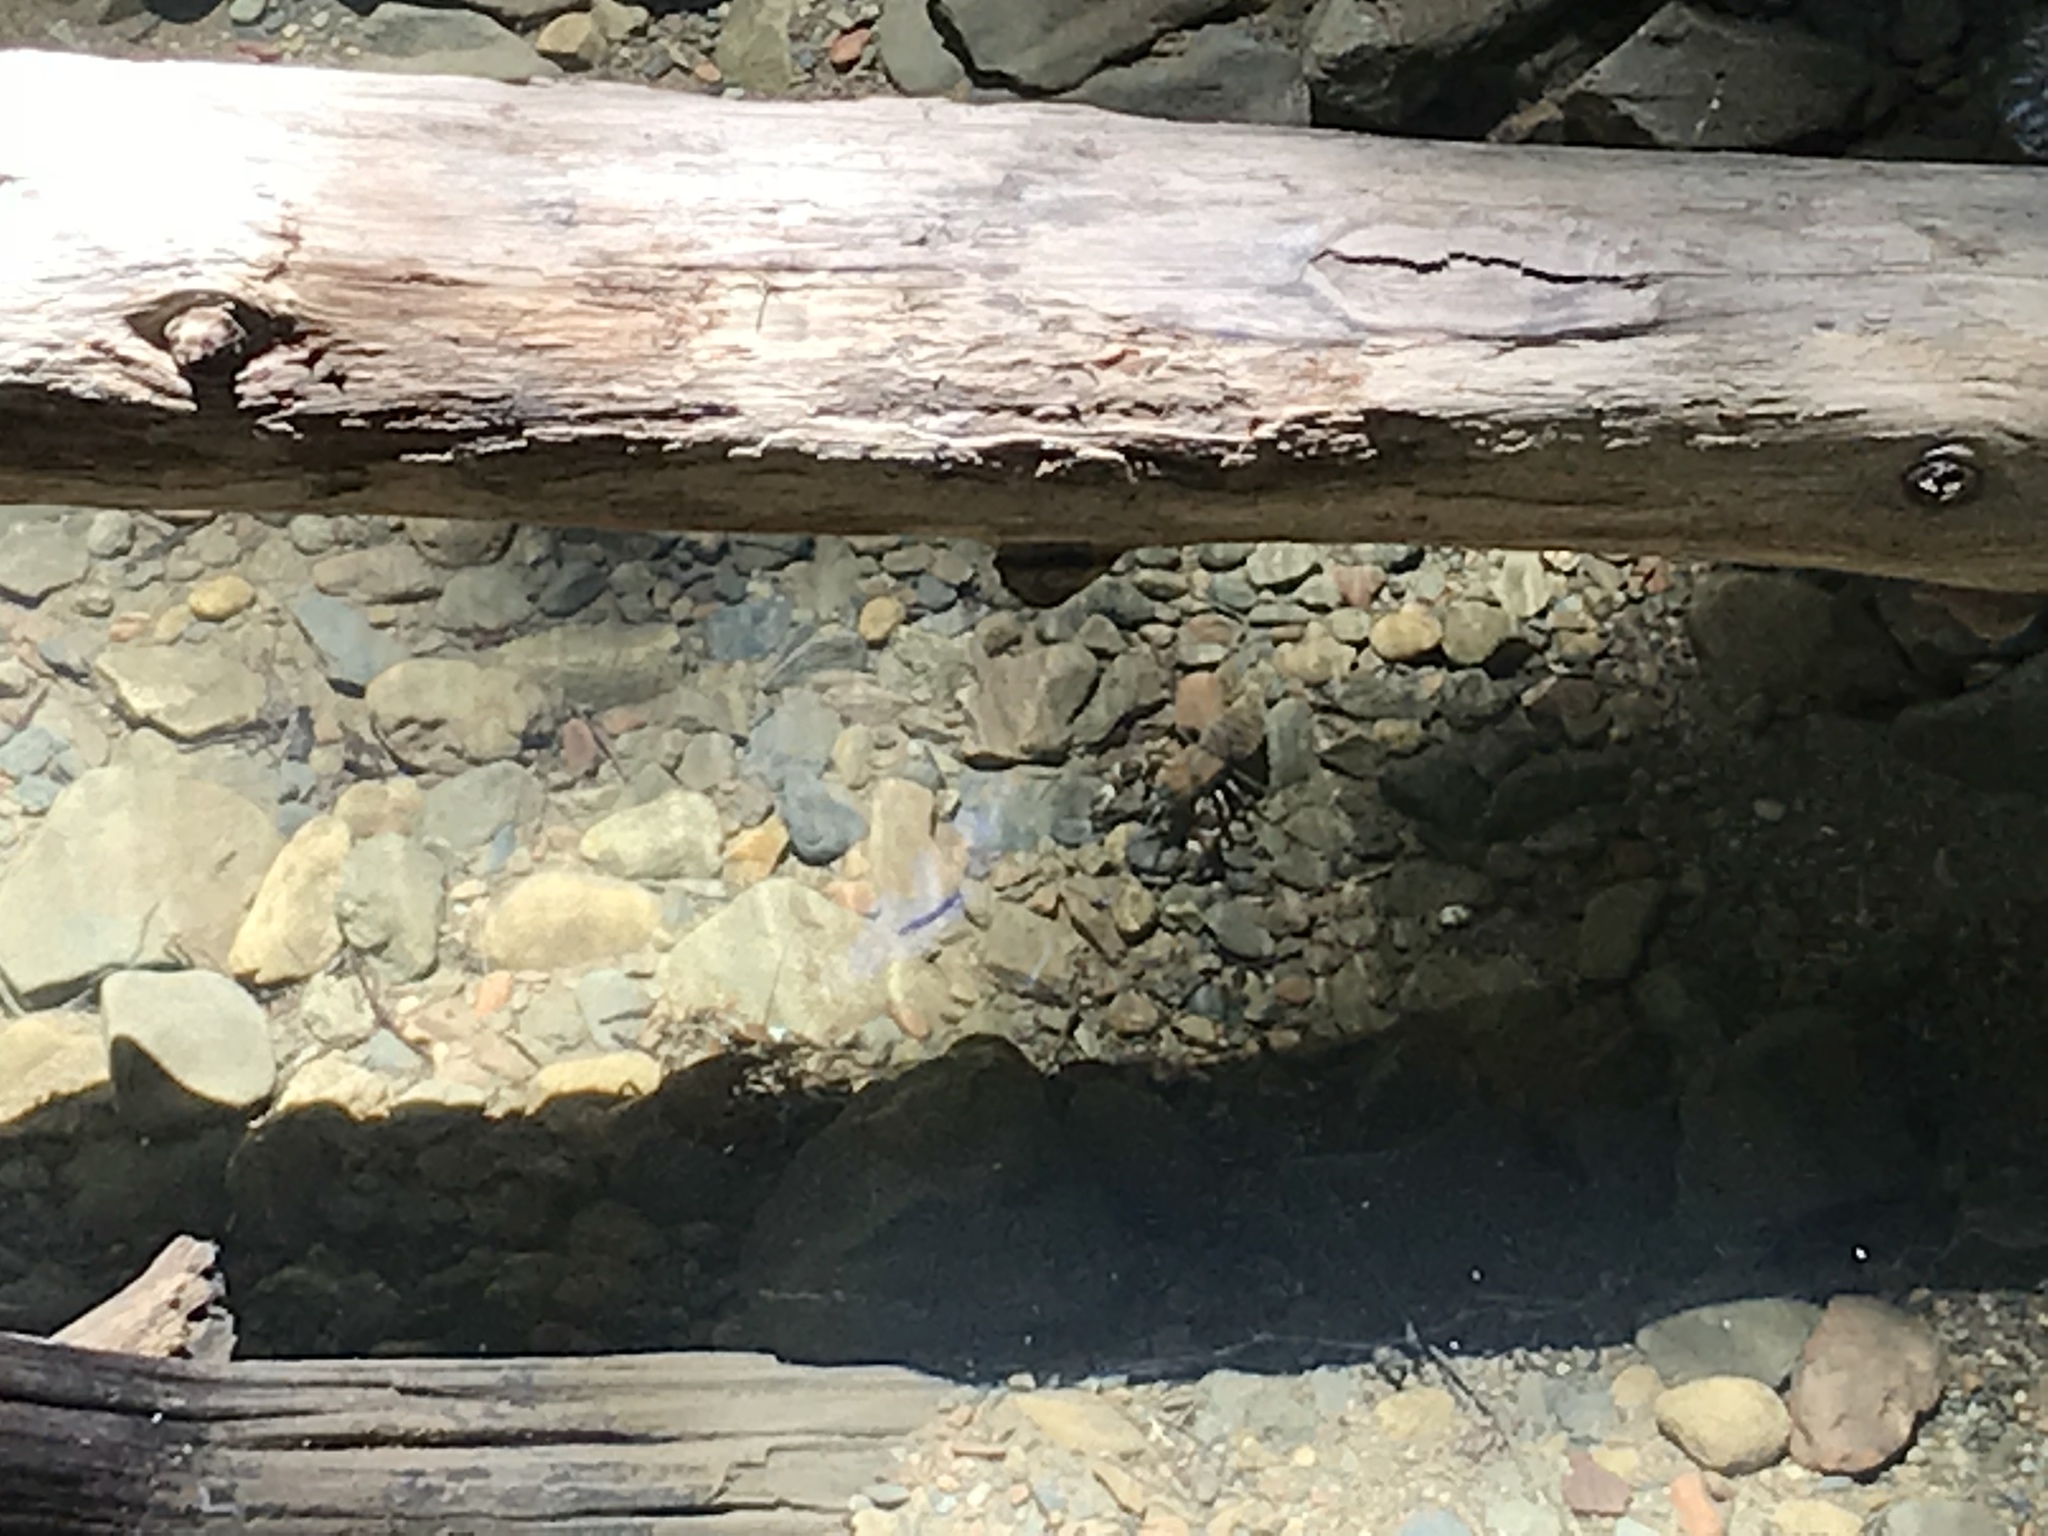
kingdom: Animalia
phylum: Arthropoda
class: Malacostraca
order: Decapoda
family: Astacidae
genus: Pacifastacus
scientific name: Pacifastacus leniusculus
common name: Signal crayfish
